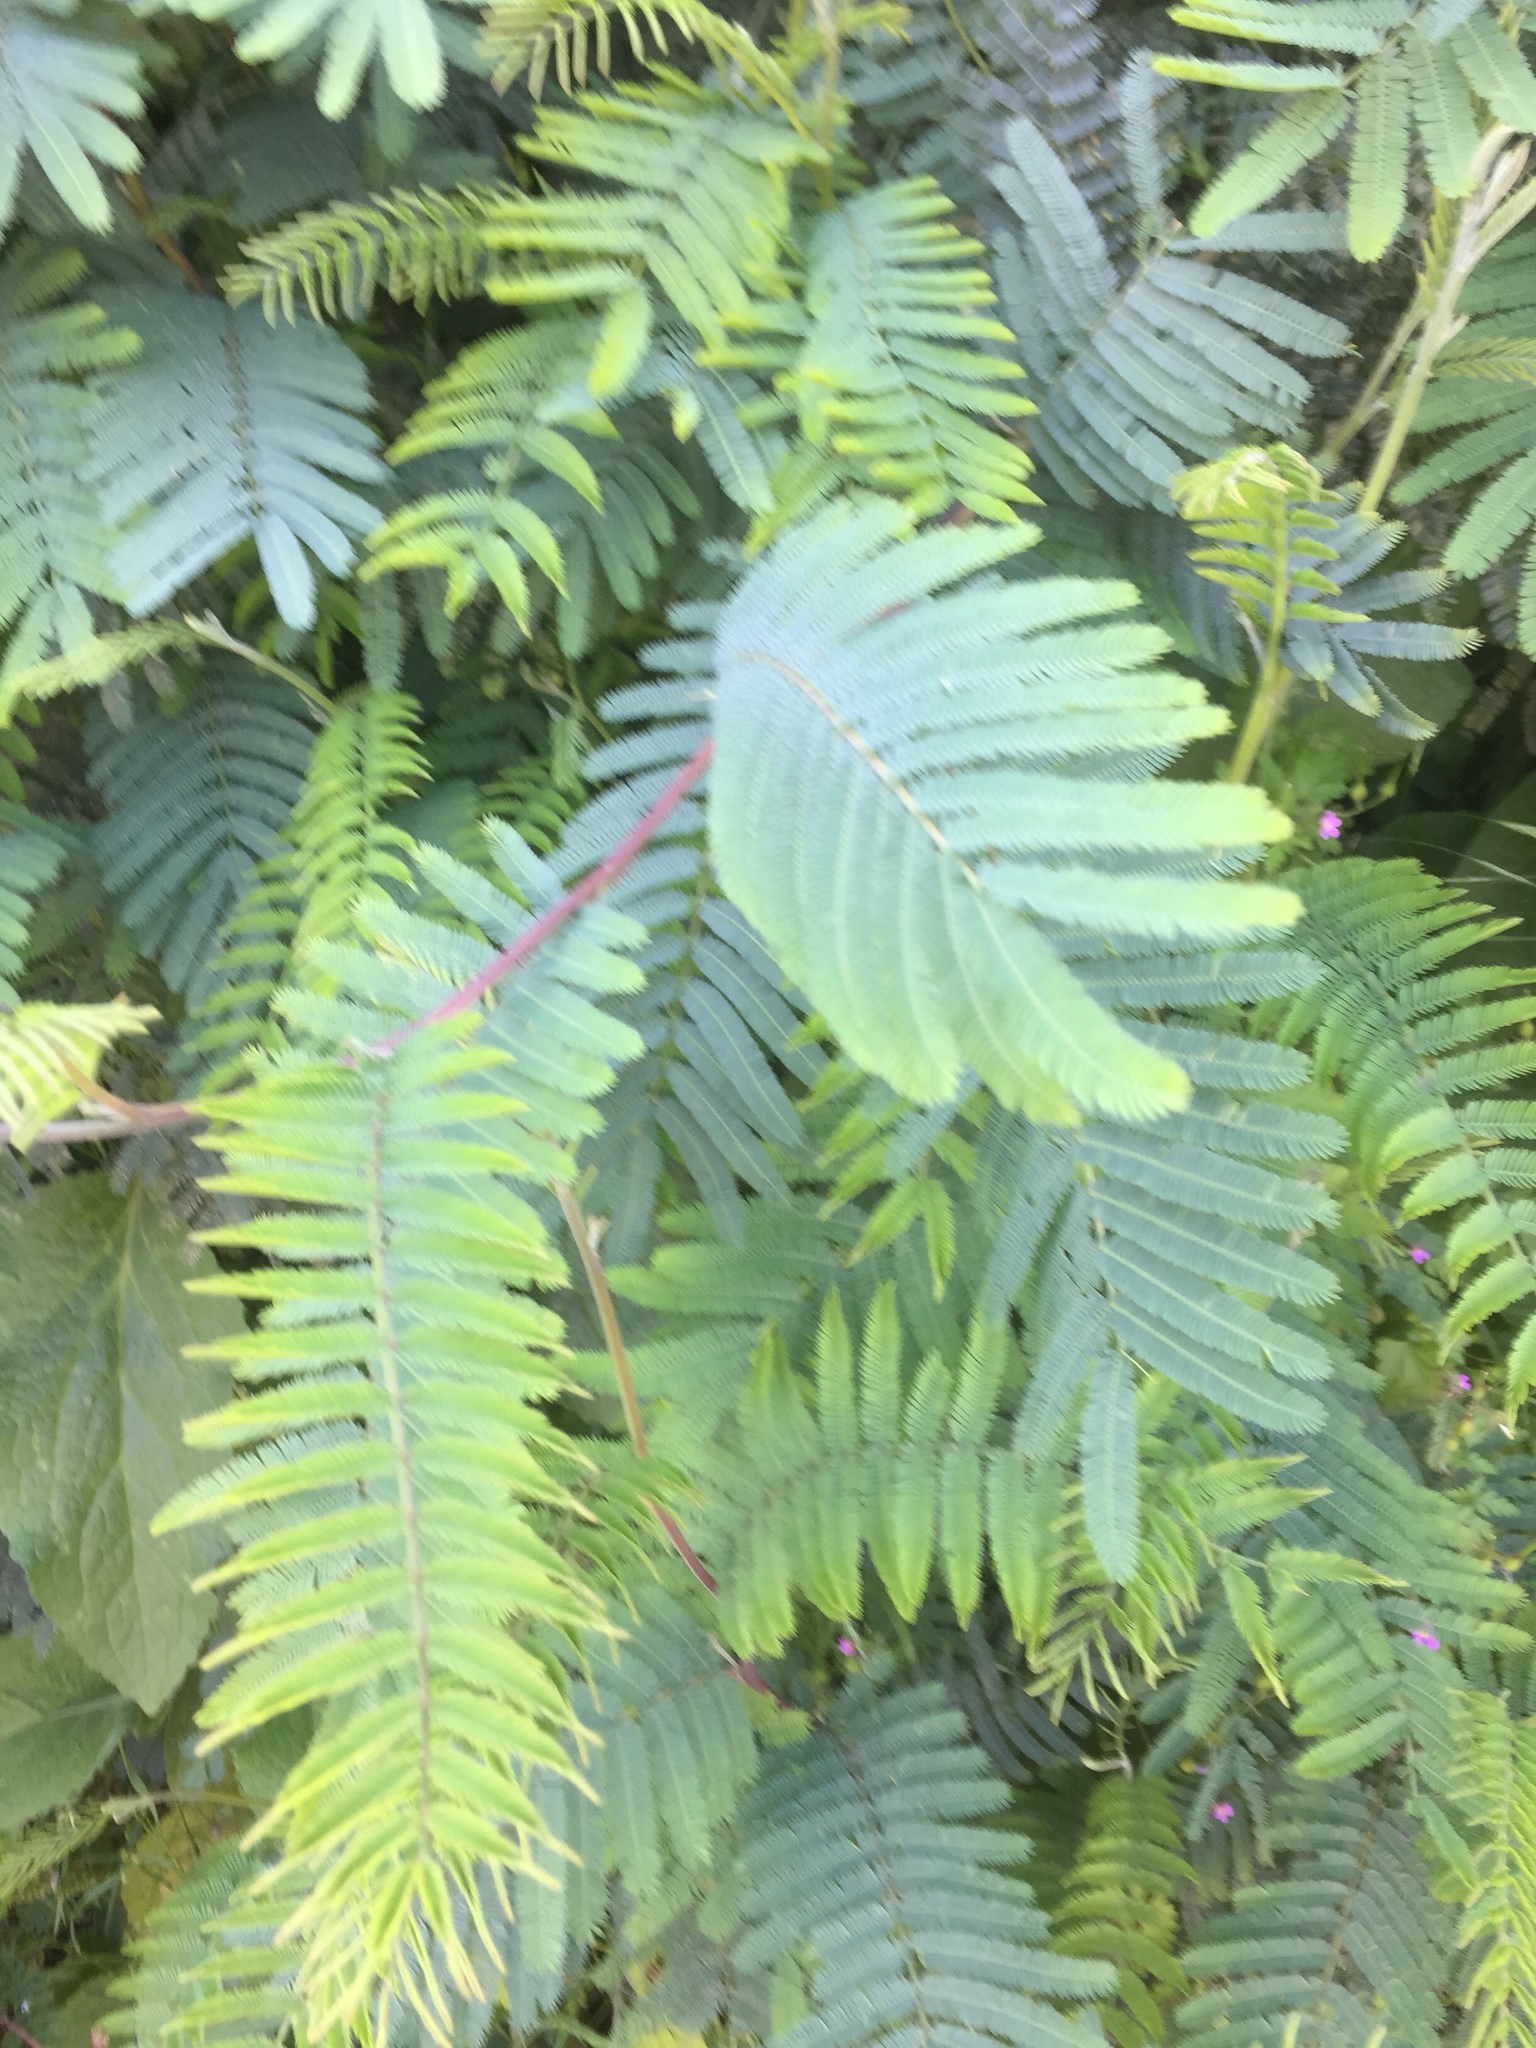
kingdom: Plantae
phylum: Tracheophyta
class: Magnoliopsida
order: Fabales
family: Fabaceae
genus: Acacia
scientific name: Acacia dealbata
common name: Silver wattle
